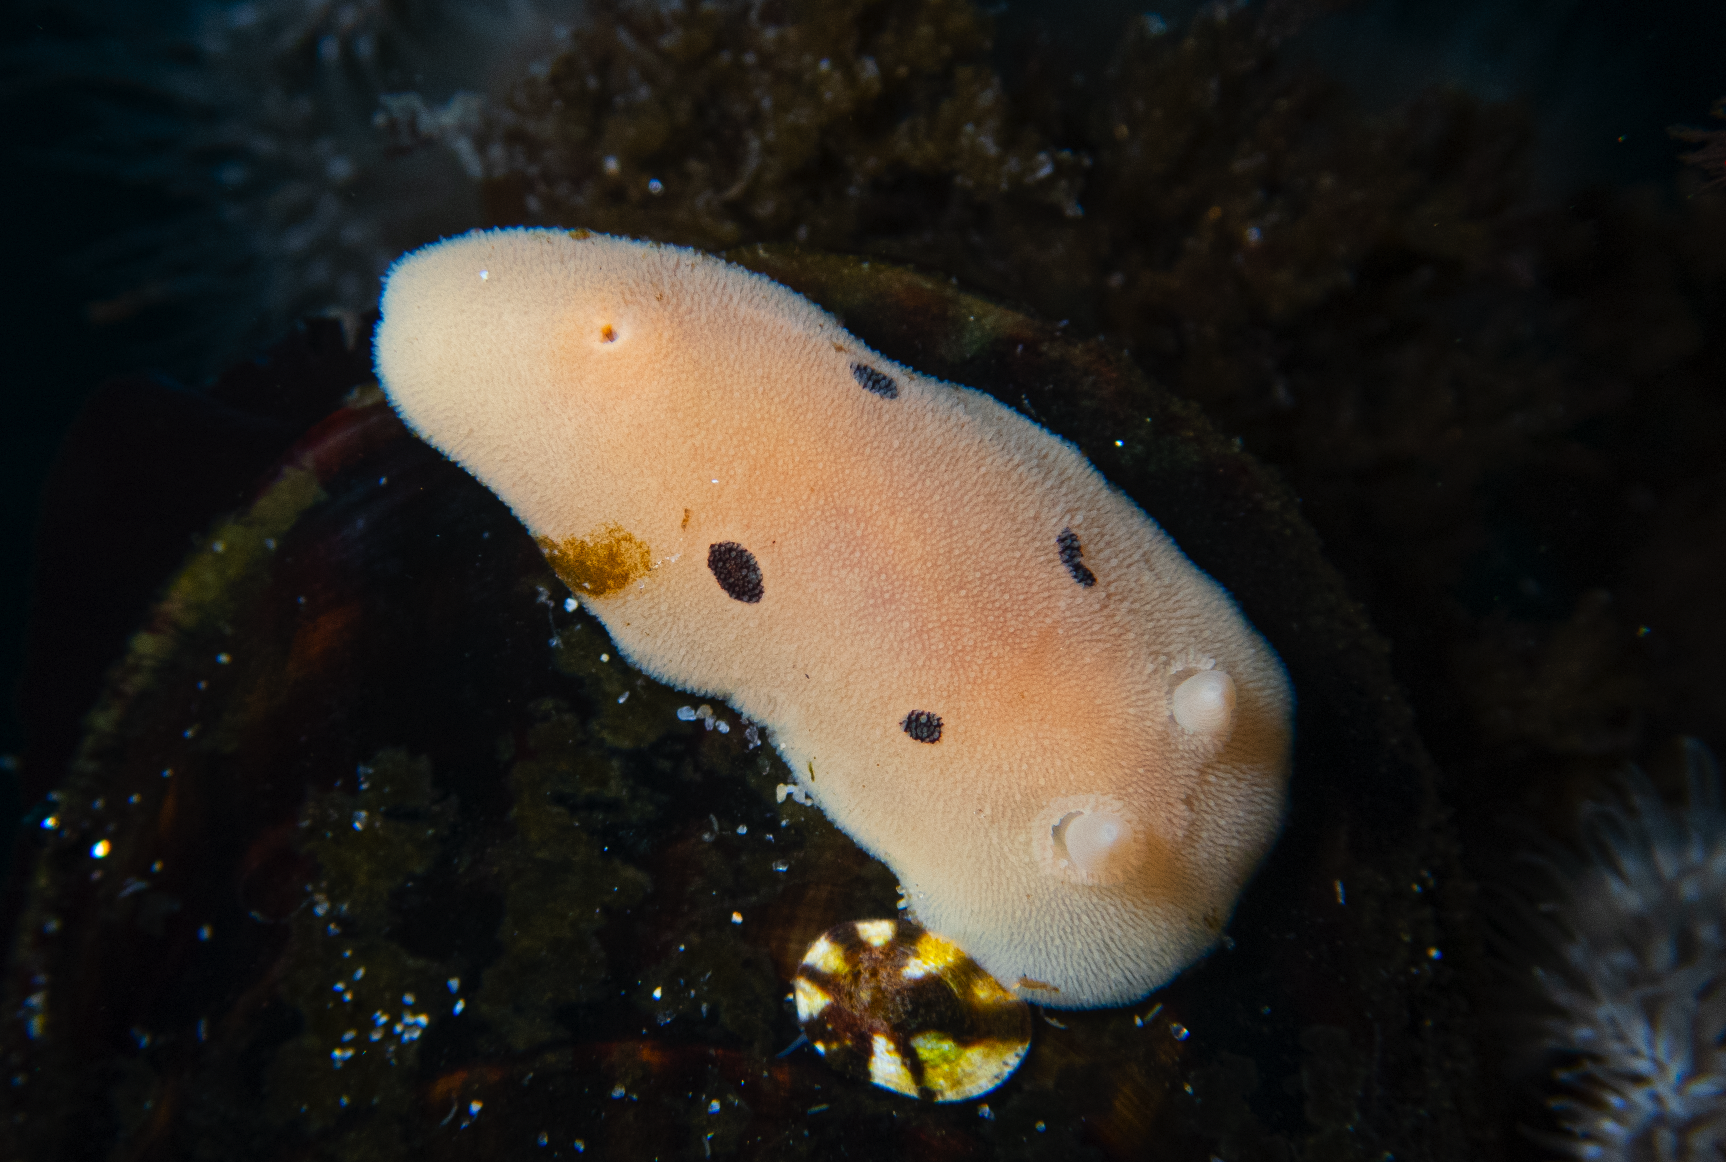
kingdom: Animalia
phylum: Mollusca
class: Gastropoda
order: Nudibranchia
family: Discodorididae
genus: Diaulula
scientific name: Diaulula sandiegensis
